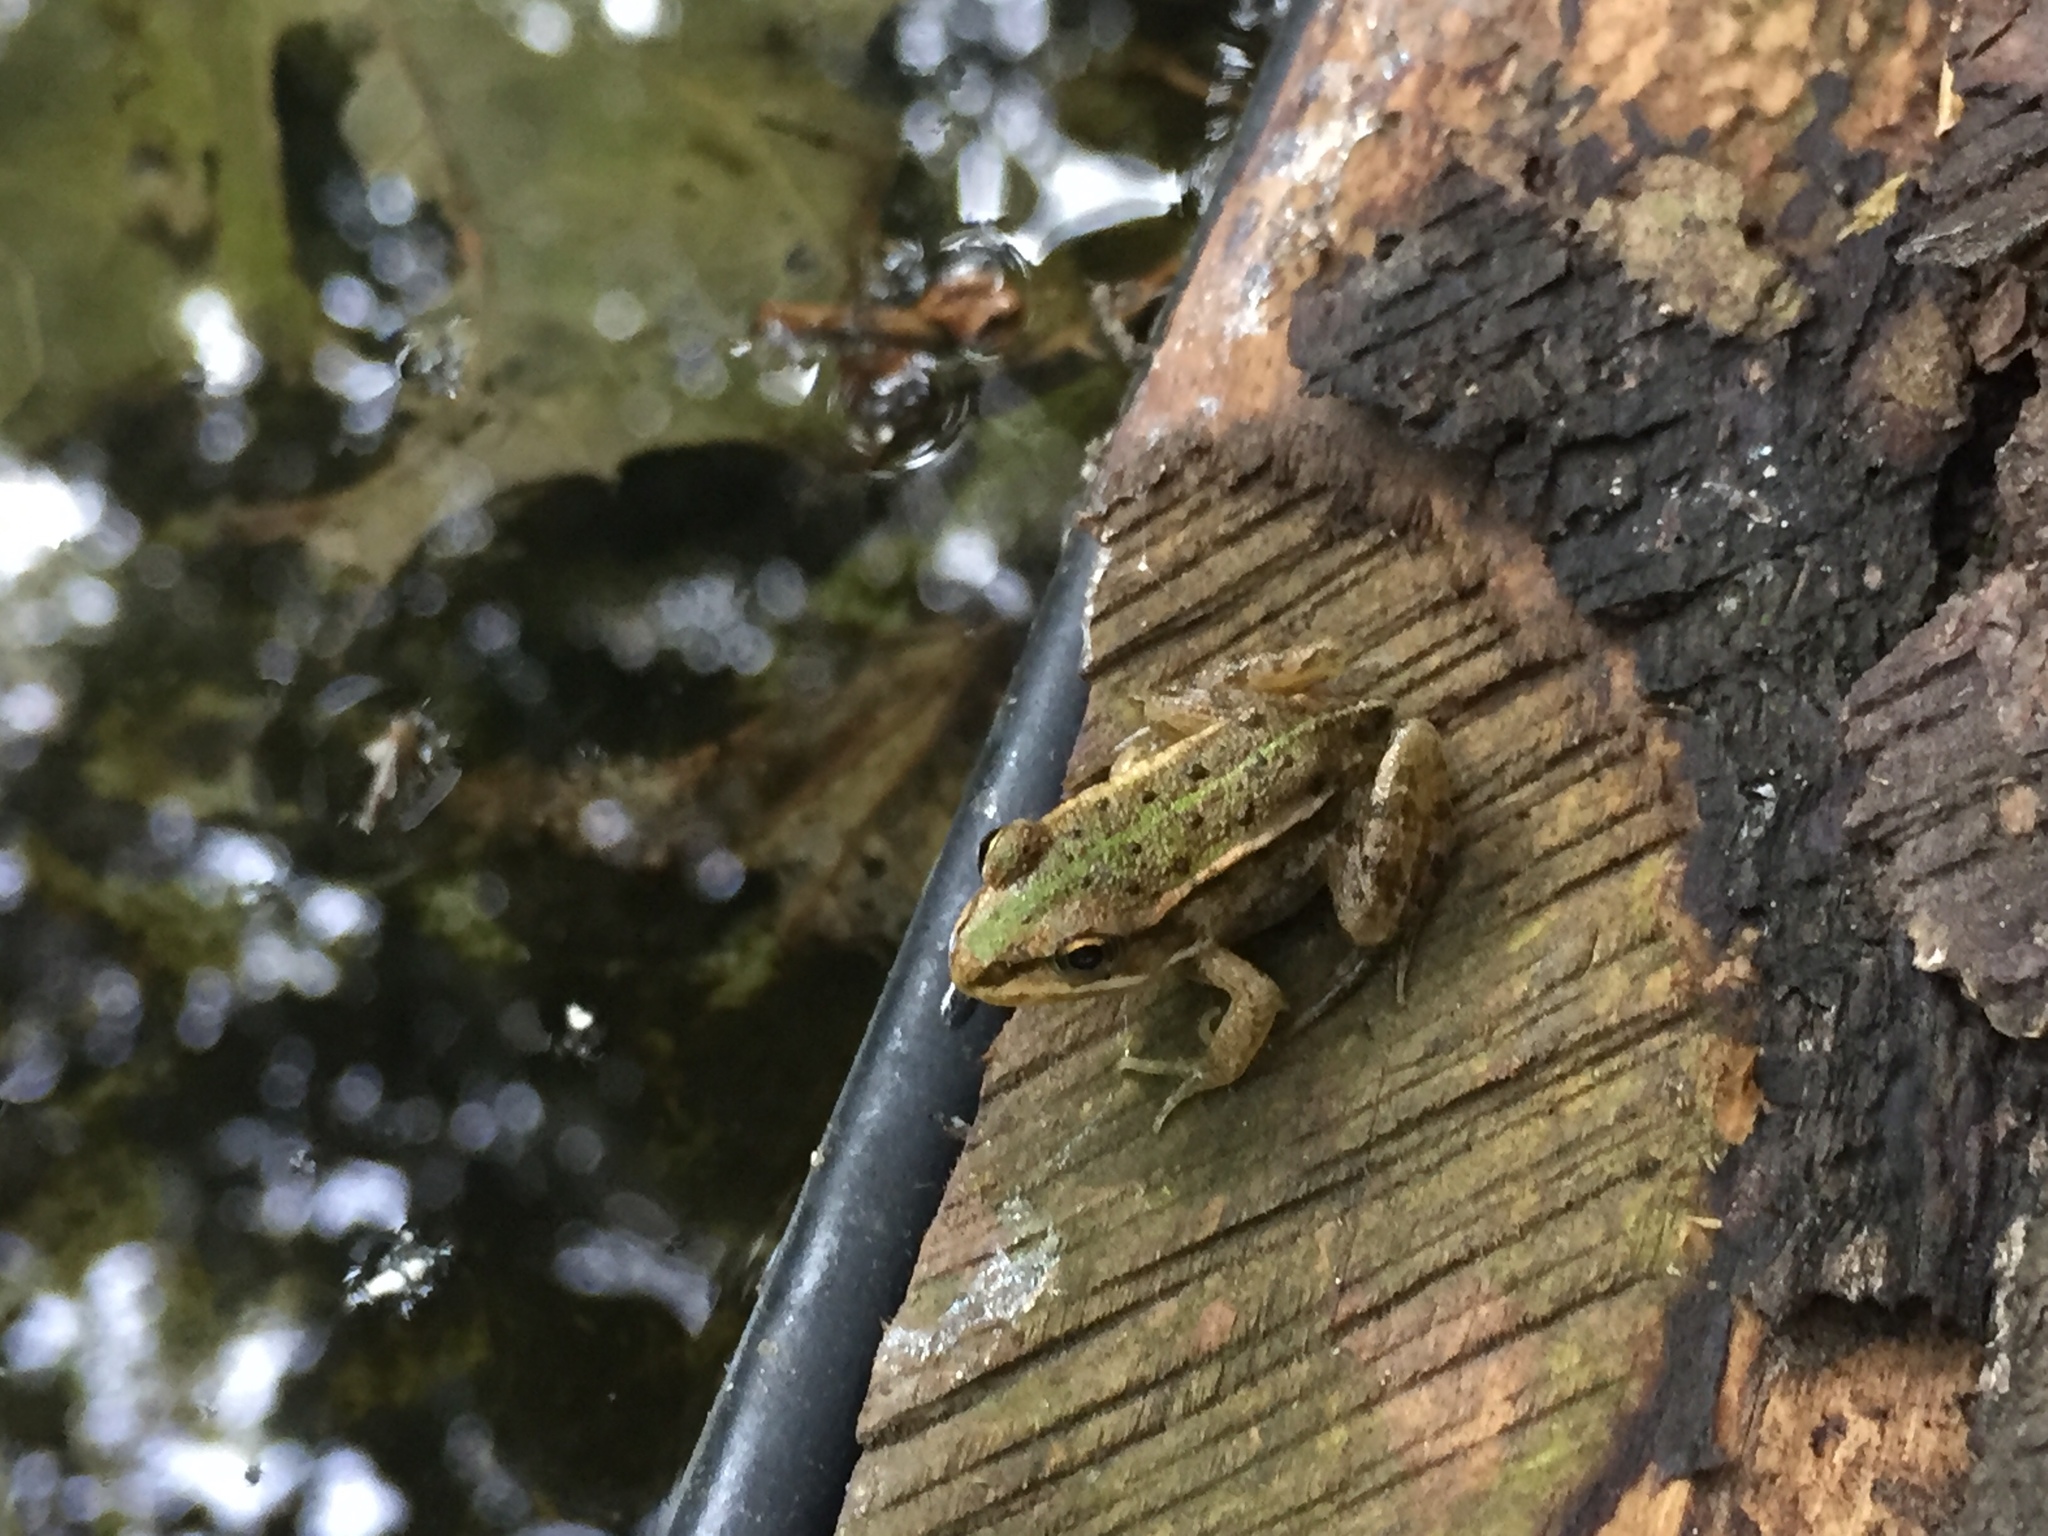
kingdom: Animalia
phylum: Chordata
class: Amphibia
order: Anura
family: Ranidae
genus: Pelophylax
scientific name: Pelophylax
